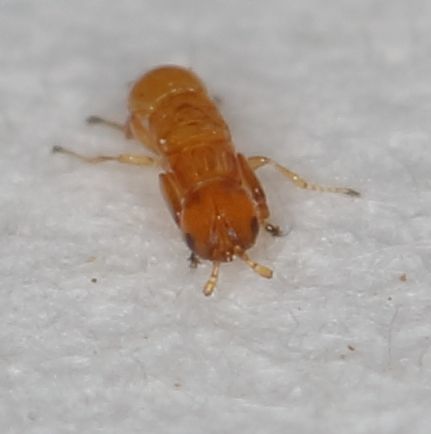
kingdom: Animalia
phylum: Arthropoda
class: Insecta
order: Hymenoptera
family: Agaonidae
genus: Platyscapa
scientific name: Platyscapa soraria
